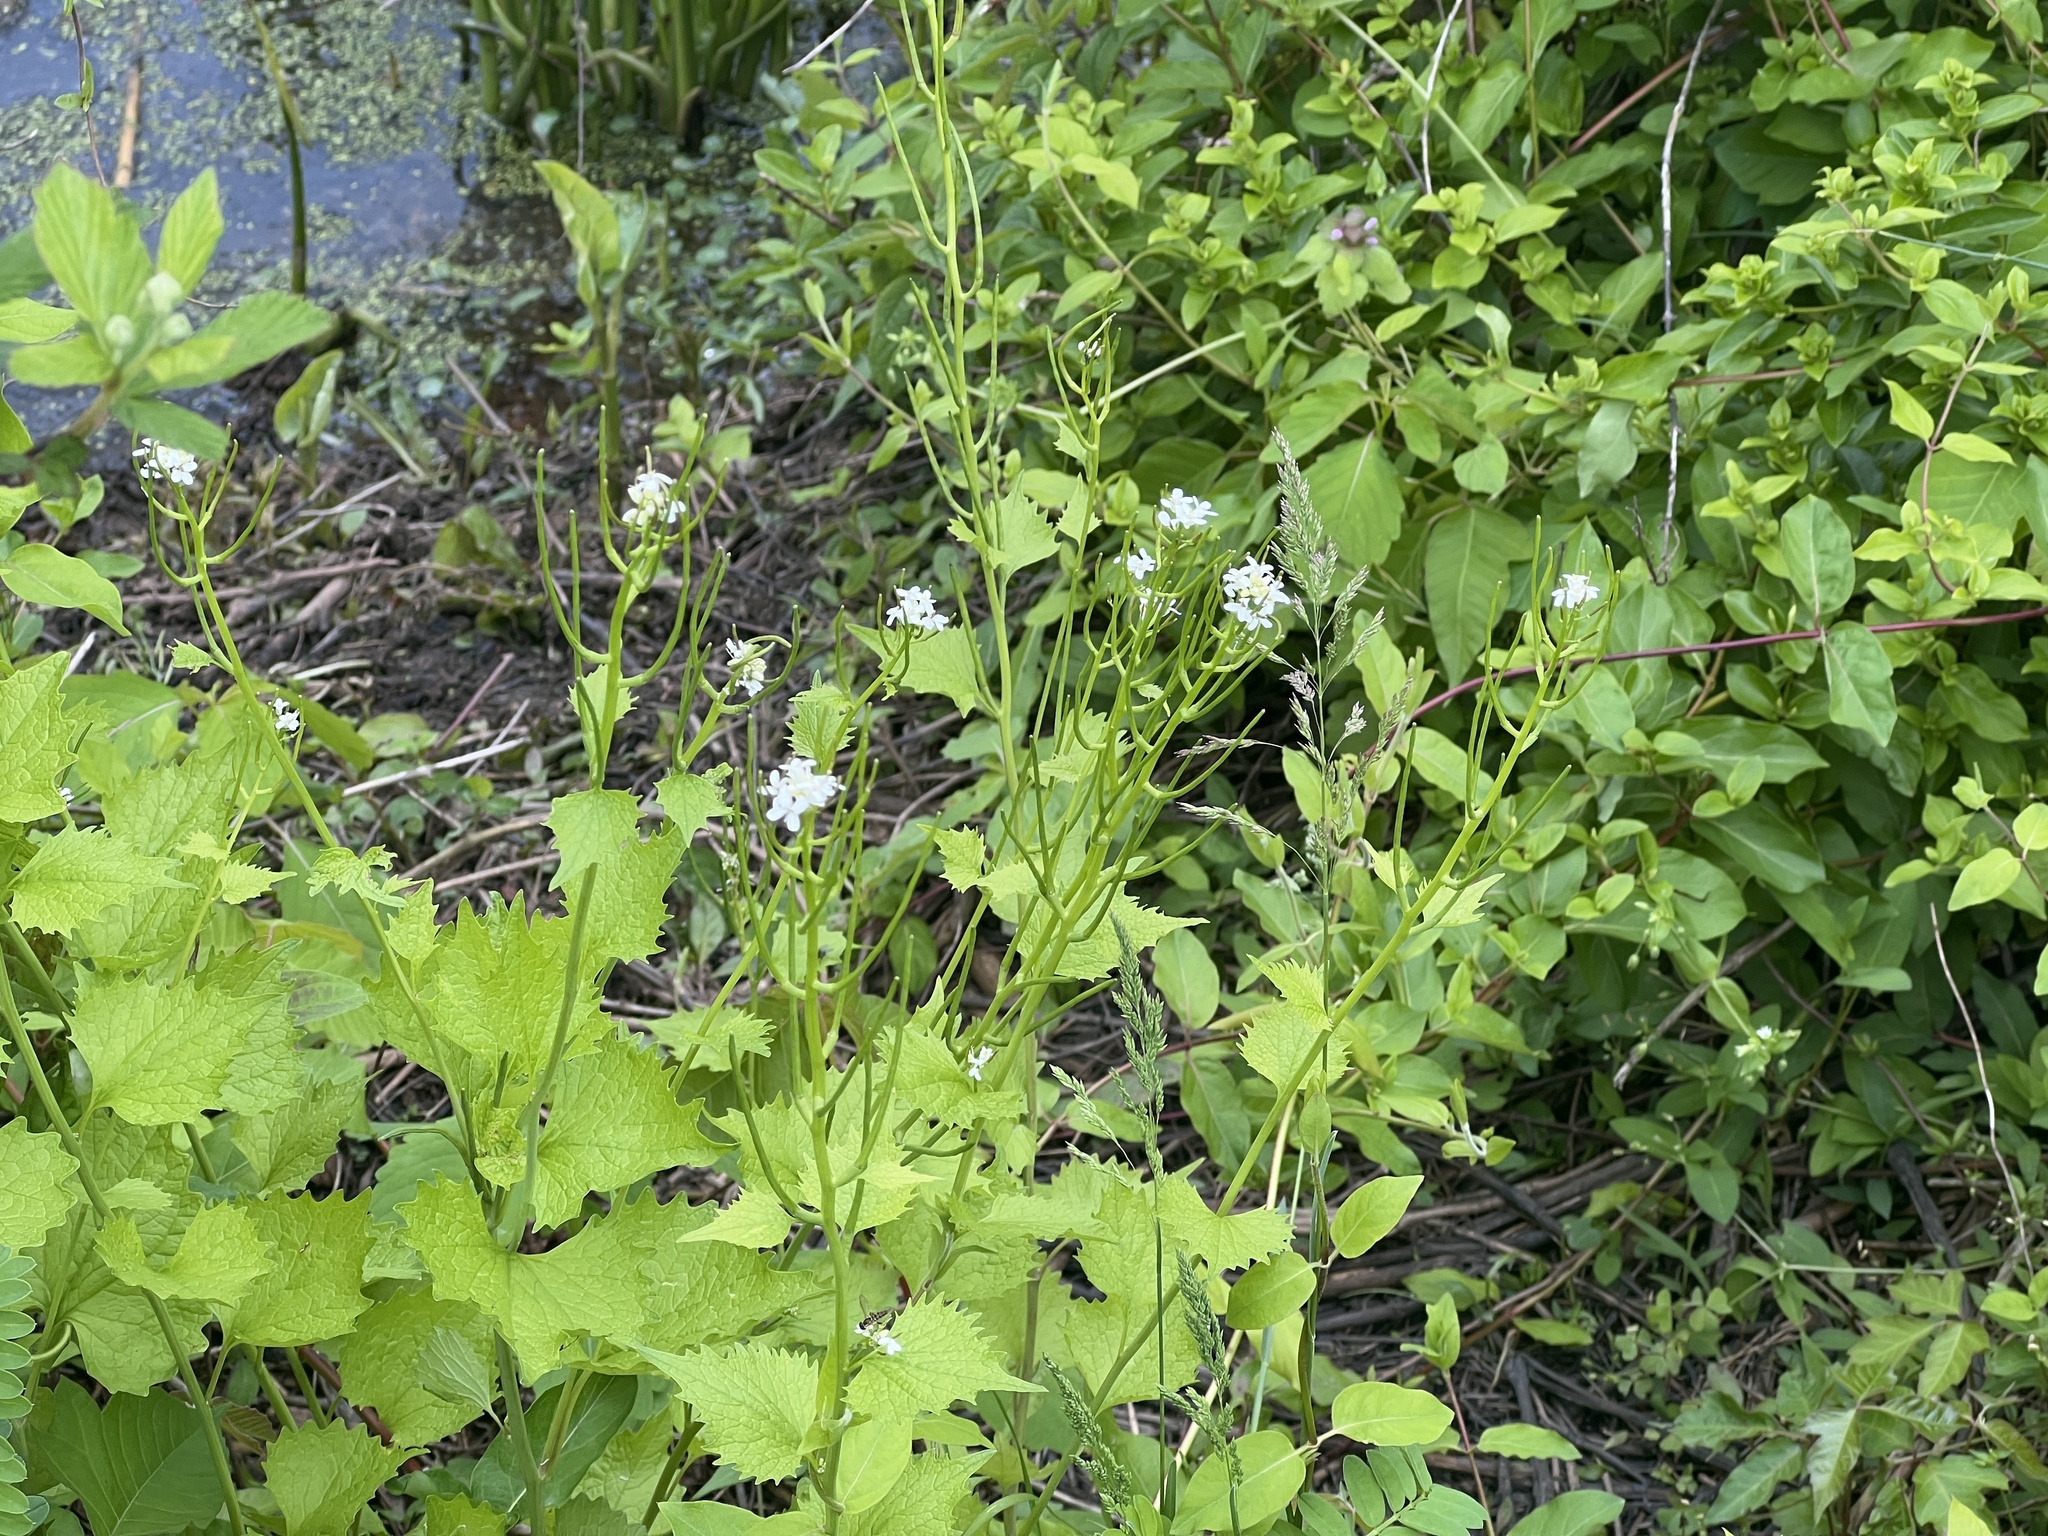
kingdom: Plantae
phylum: Tracheophyta
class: Magnoliopsida
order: Brassicales
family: Brassicaceae
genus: Alliaria
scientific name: Alliaria petiolata
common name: Garlic mustard
